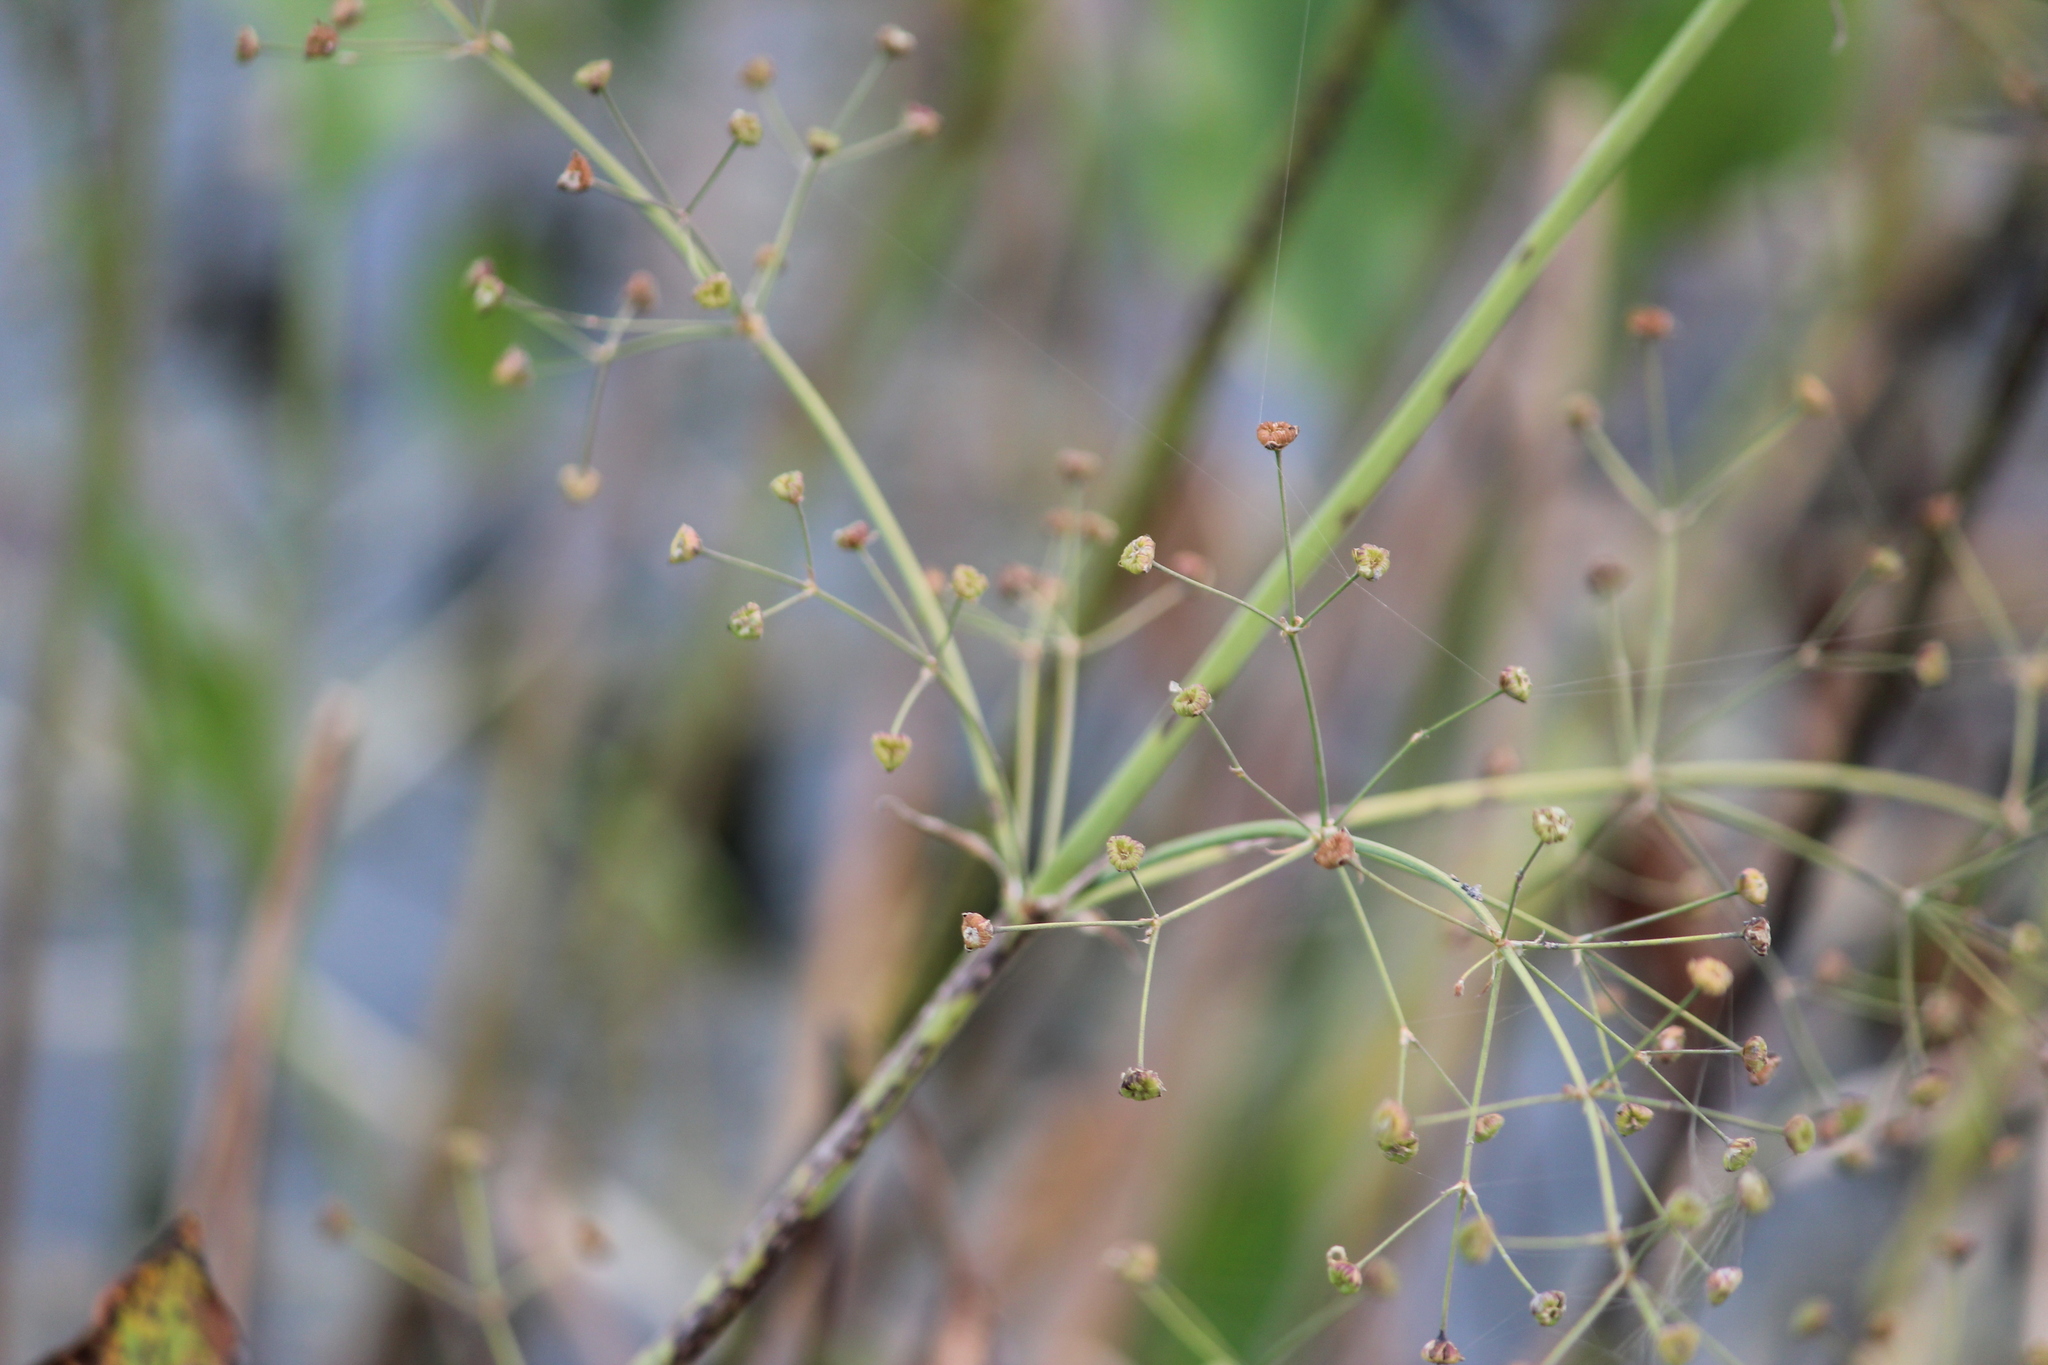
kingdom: Plantae
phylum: Tracheophyta
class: Liliopsida
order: Alismatales
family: Alismataceae
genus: Alisma
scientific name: Alisma plantago-aquatica
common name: Water-plantain
